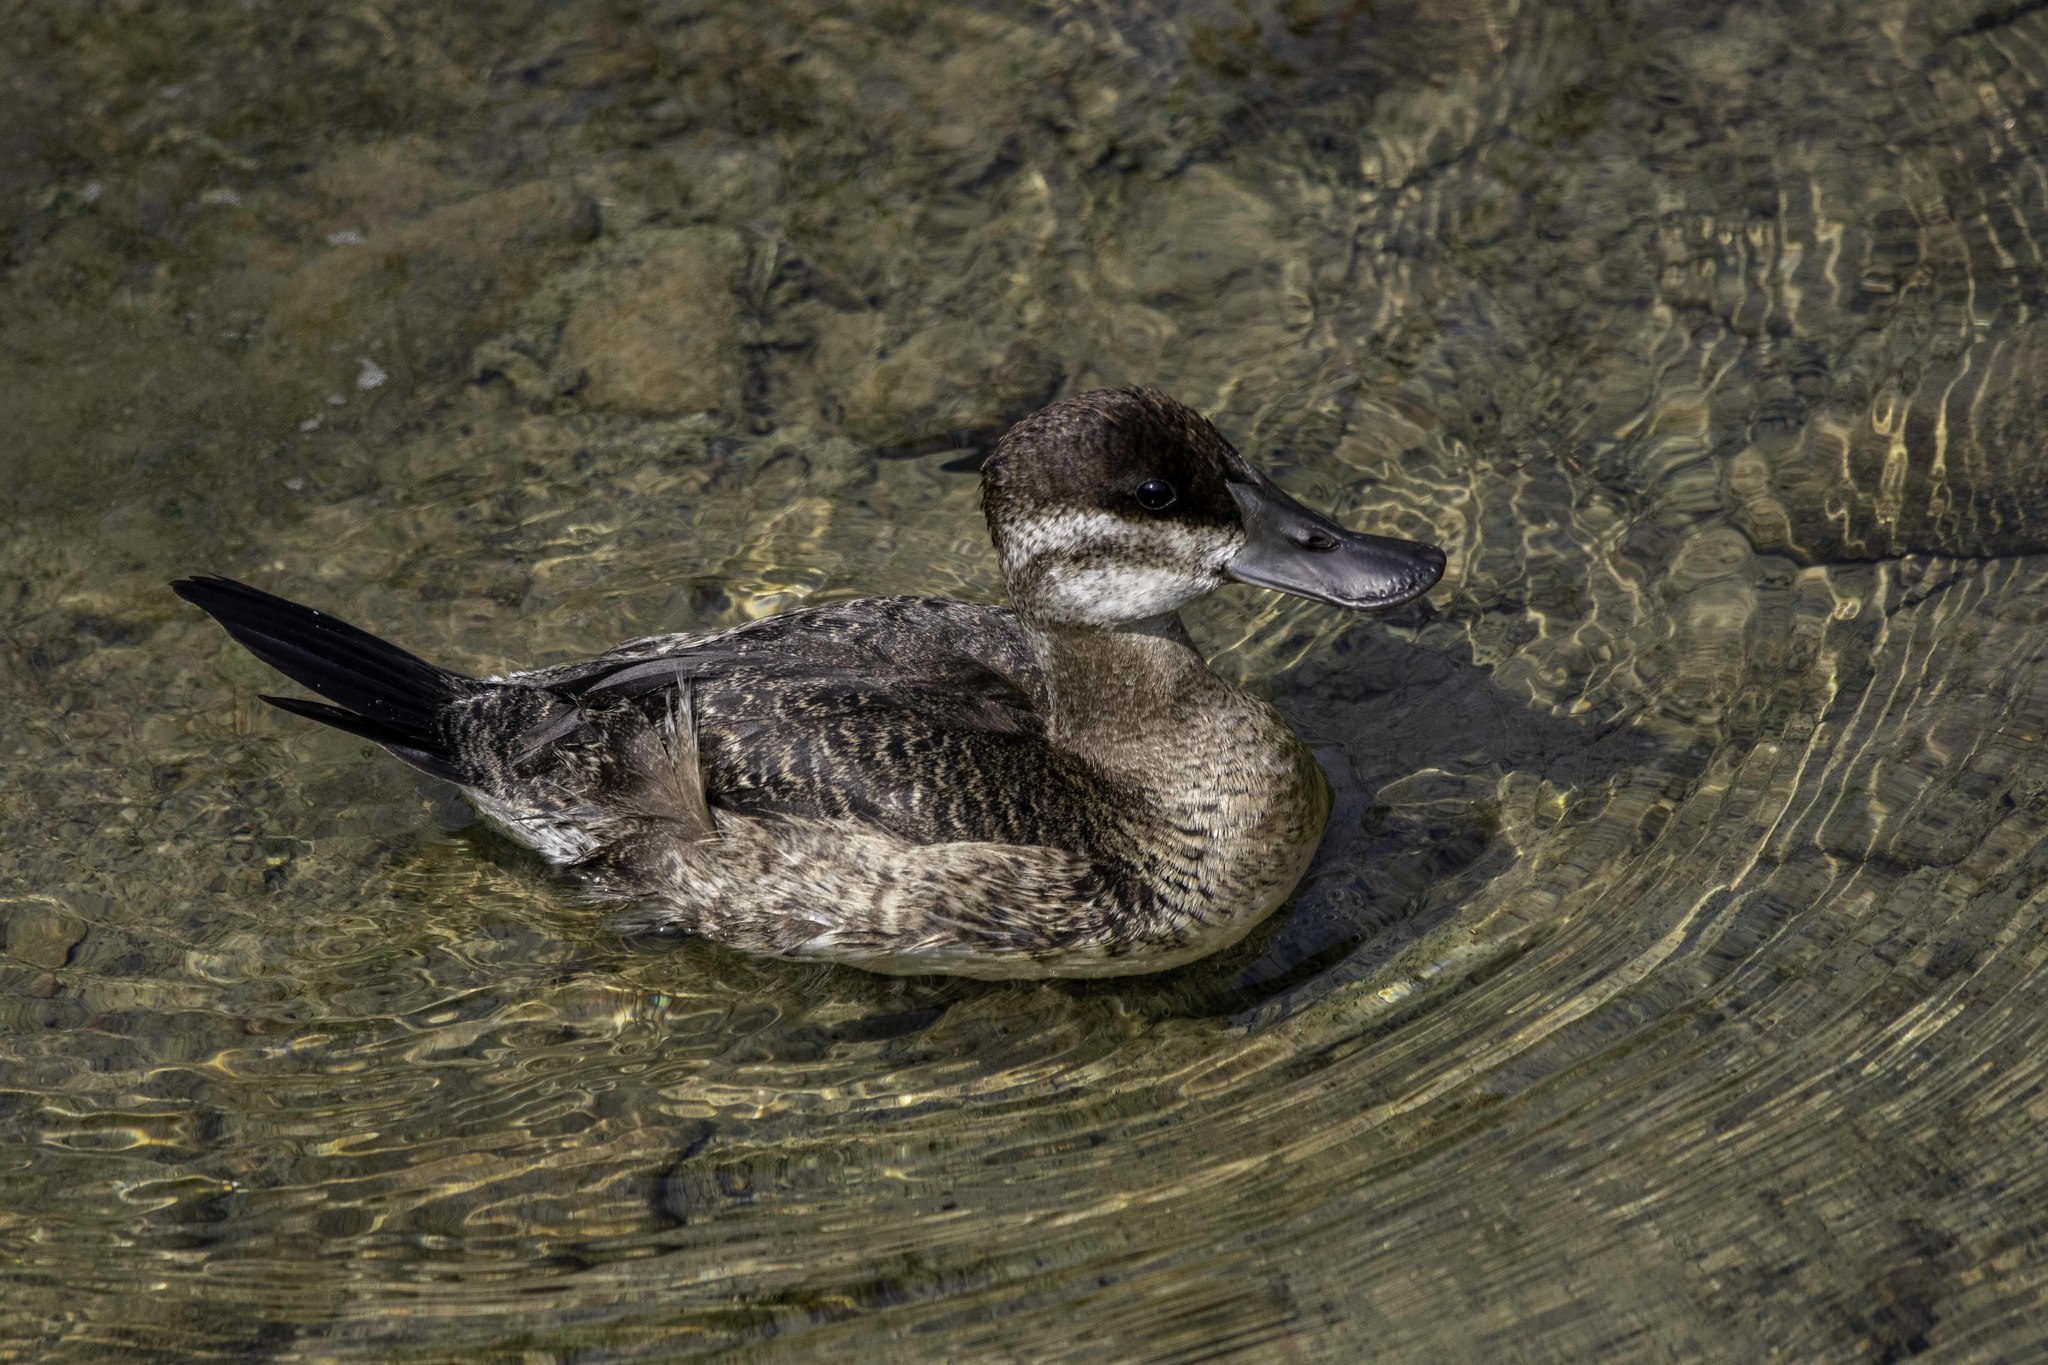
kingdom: Animalia
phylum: Chordata
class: Aves
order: Anseriformes
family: Anatidae
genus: Oxyura
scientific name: Oxyura jamaicensis
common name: Ruddy duck
